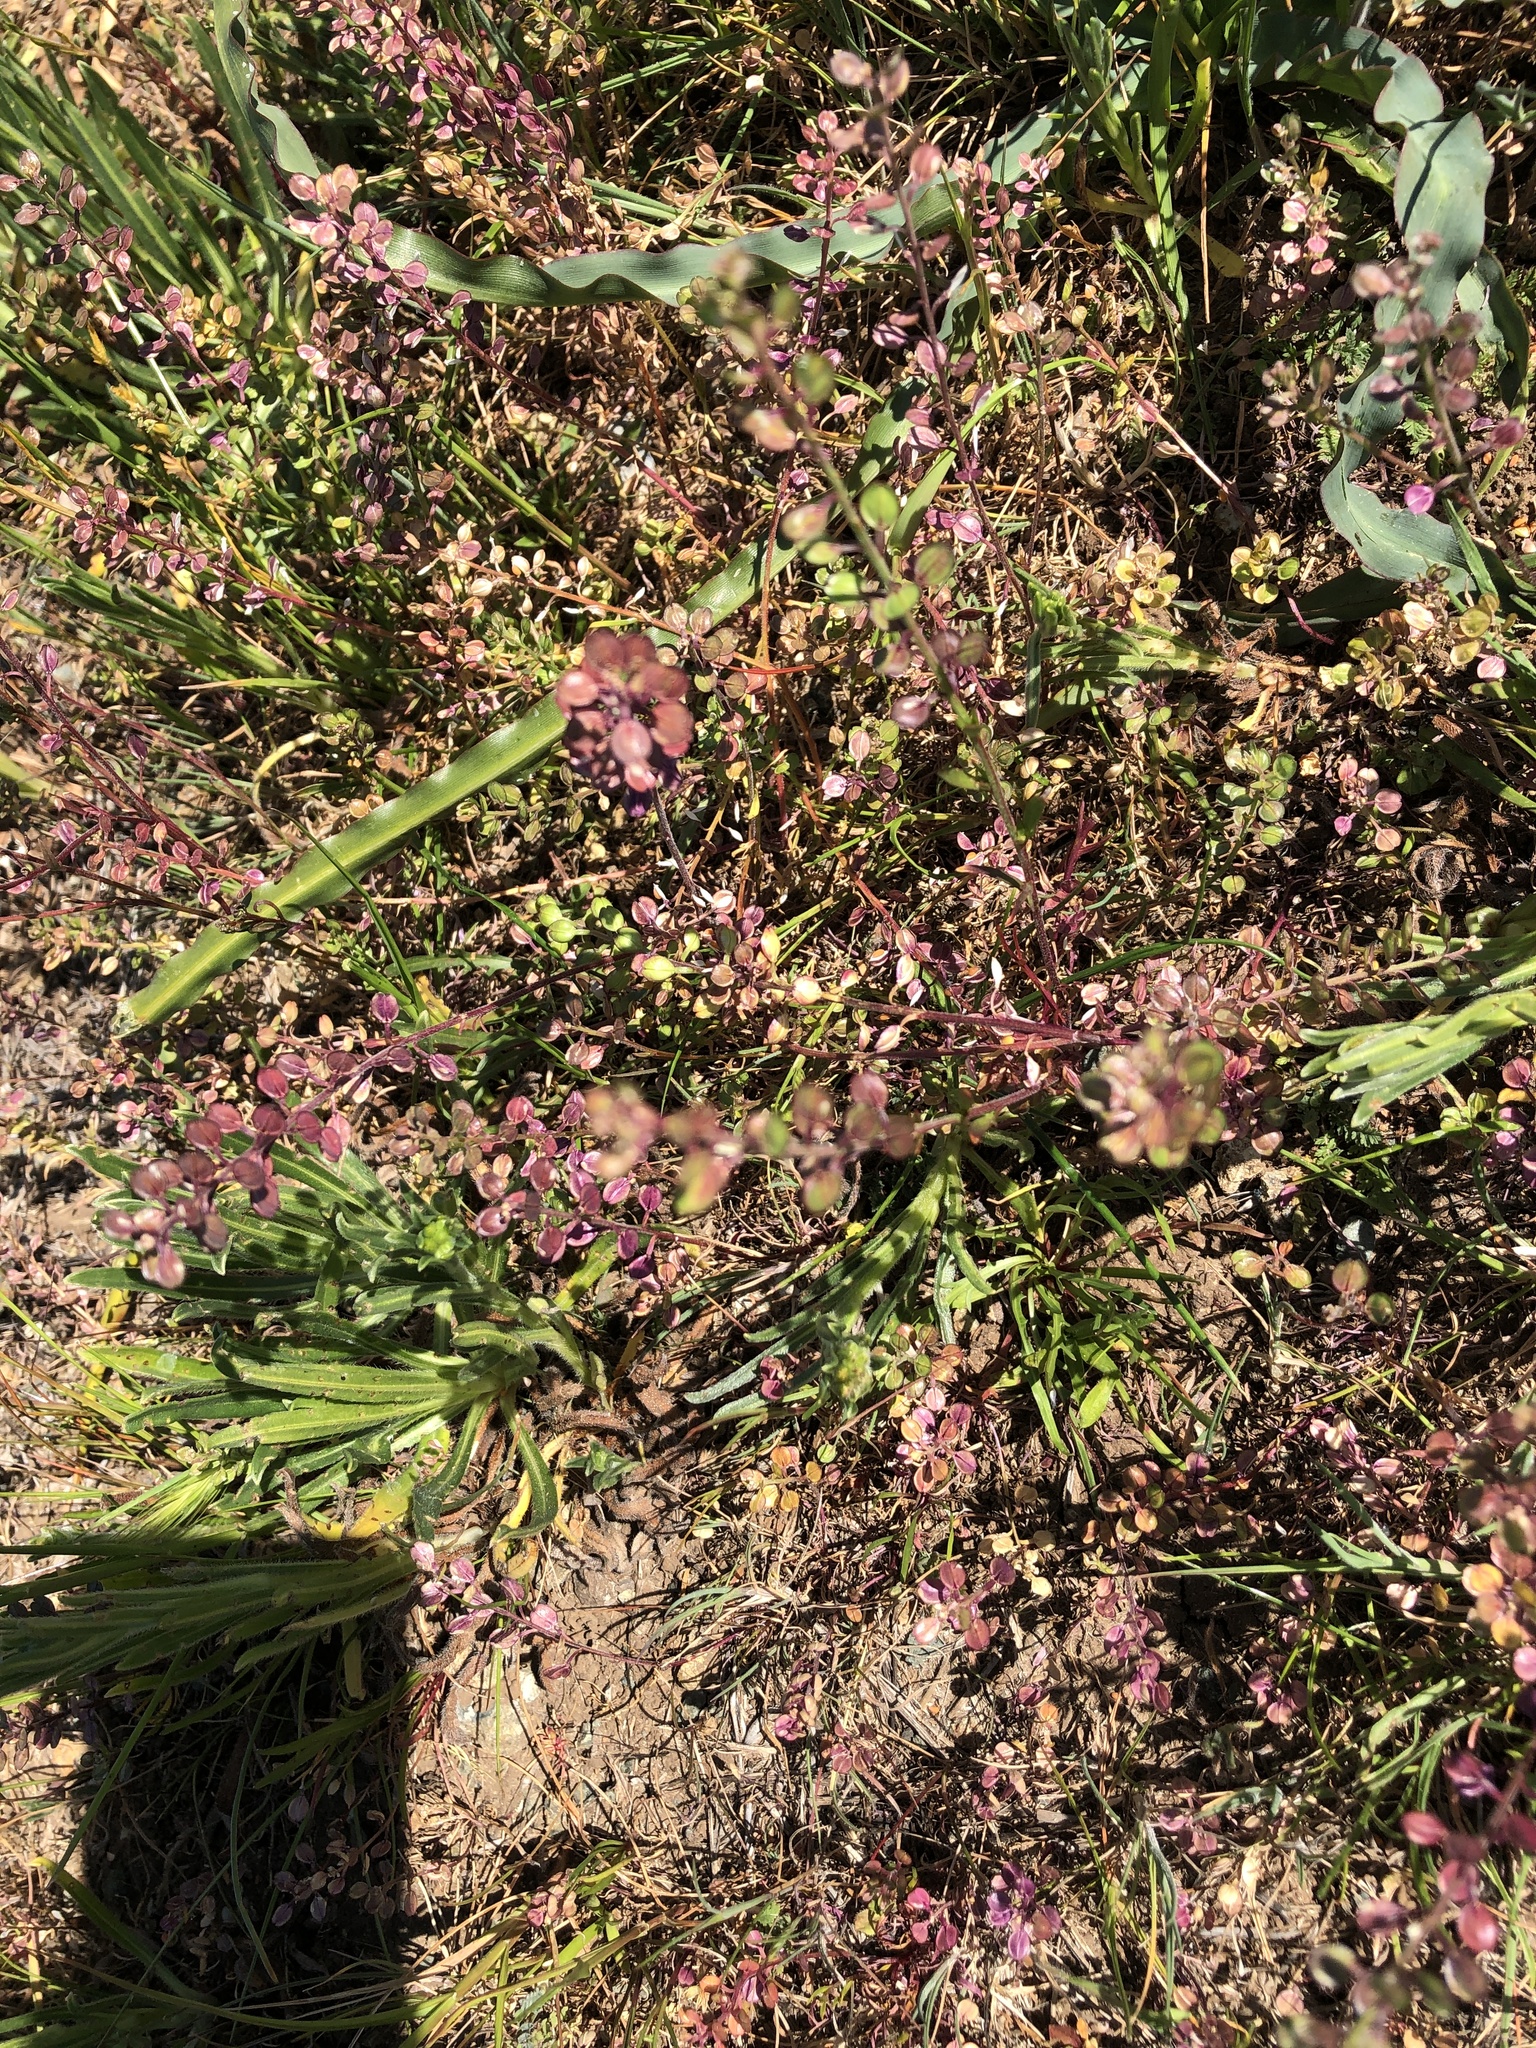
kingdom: Plantae
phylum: Tracheophyta
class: Magnoliopsida
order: Brassicales
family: Brassicaceae
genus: Lepidium
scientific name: Lepidium nitidum
